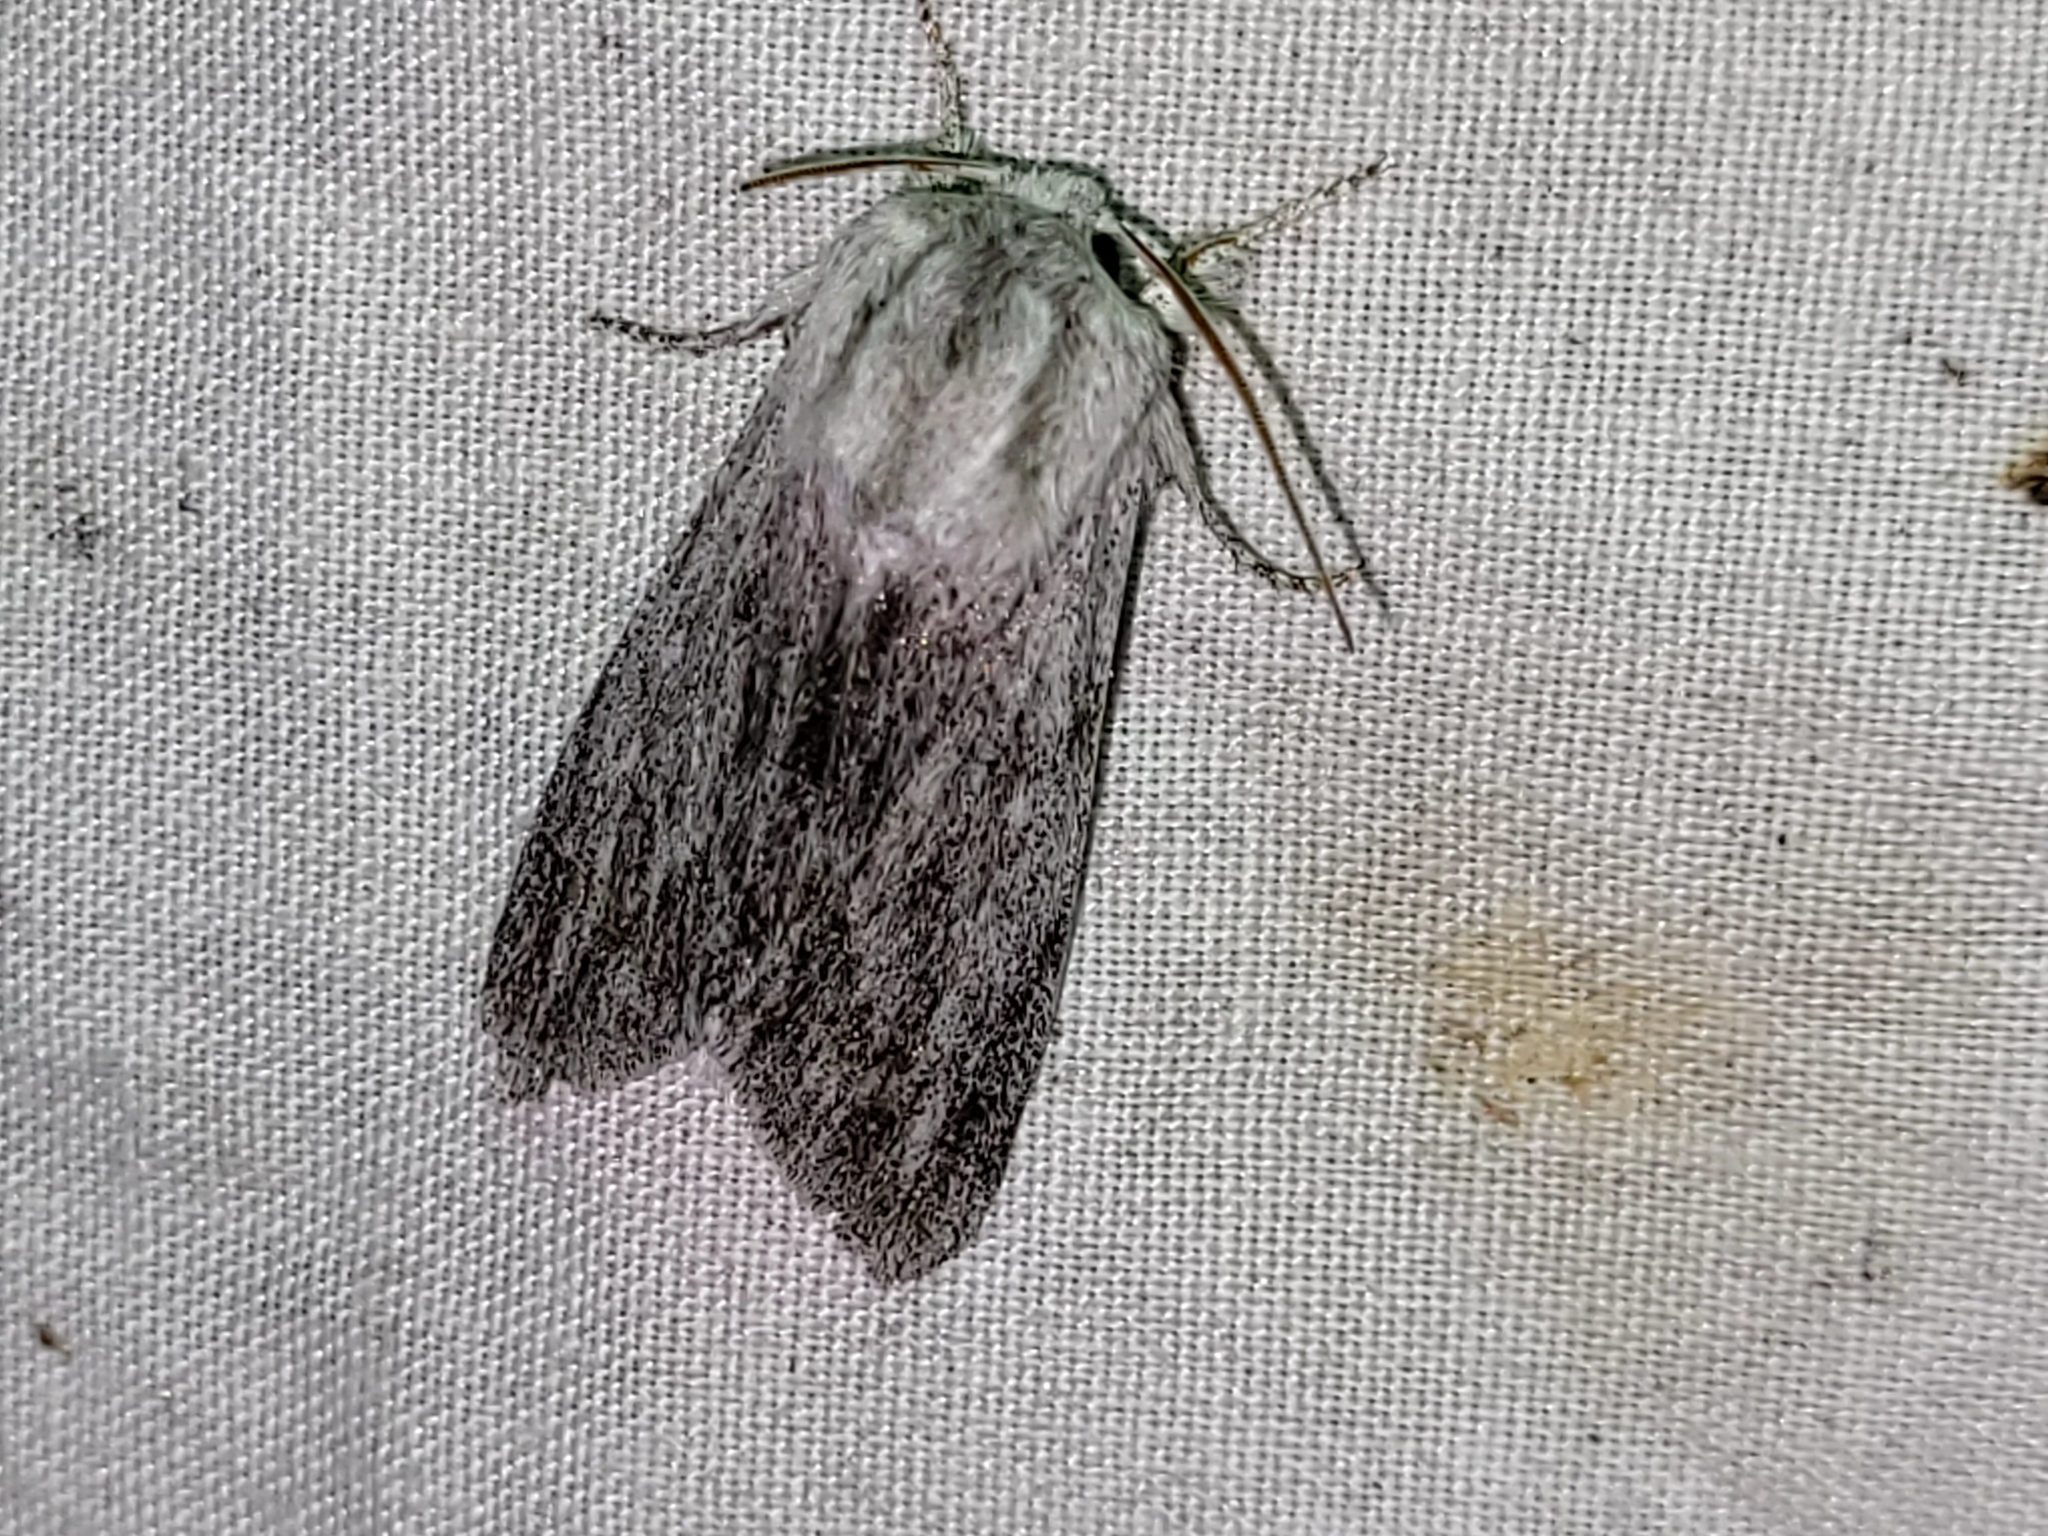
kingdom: Animalia
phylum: Arthropoda
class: Insecta
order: Lepidoptera
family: Noctuidae
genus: Acronicta
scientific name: Acronicta lanceolaria
